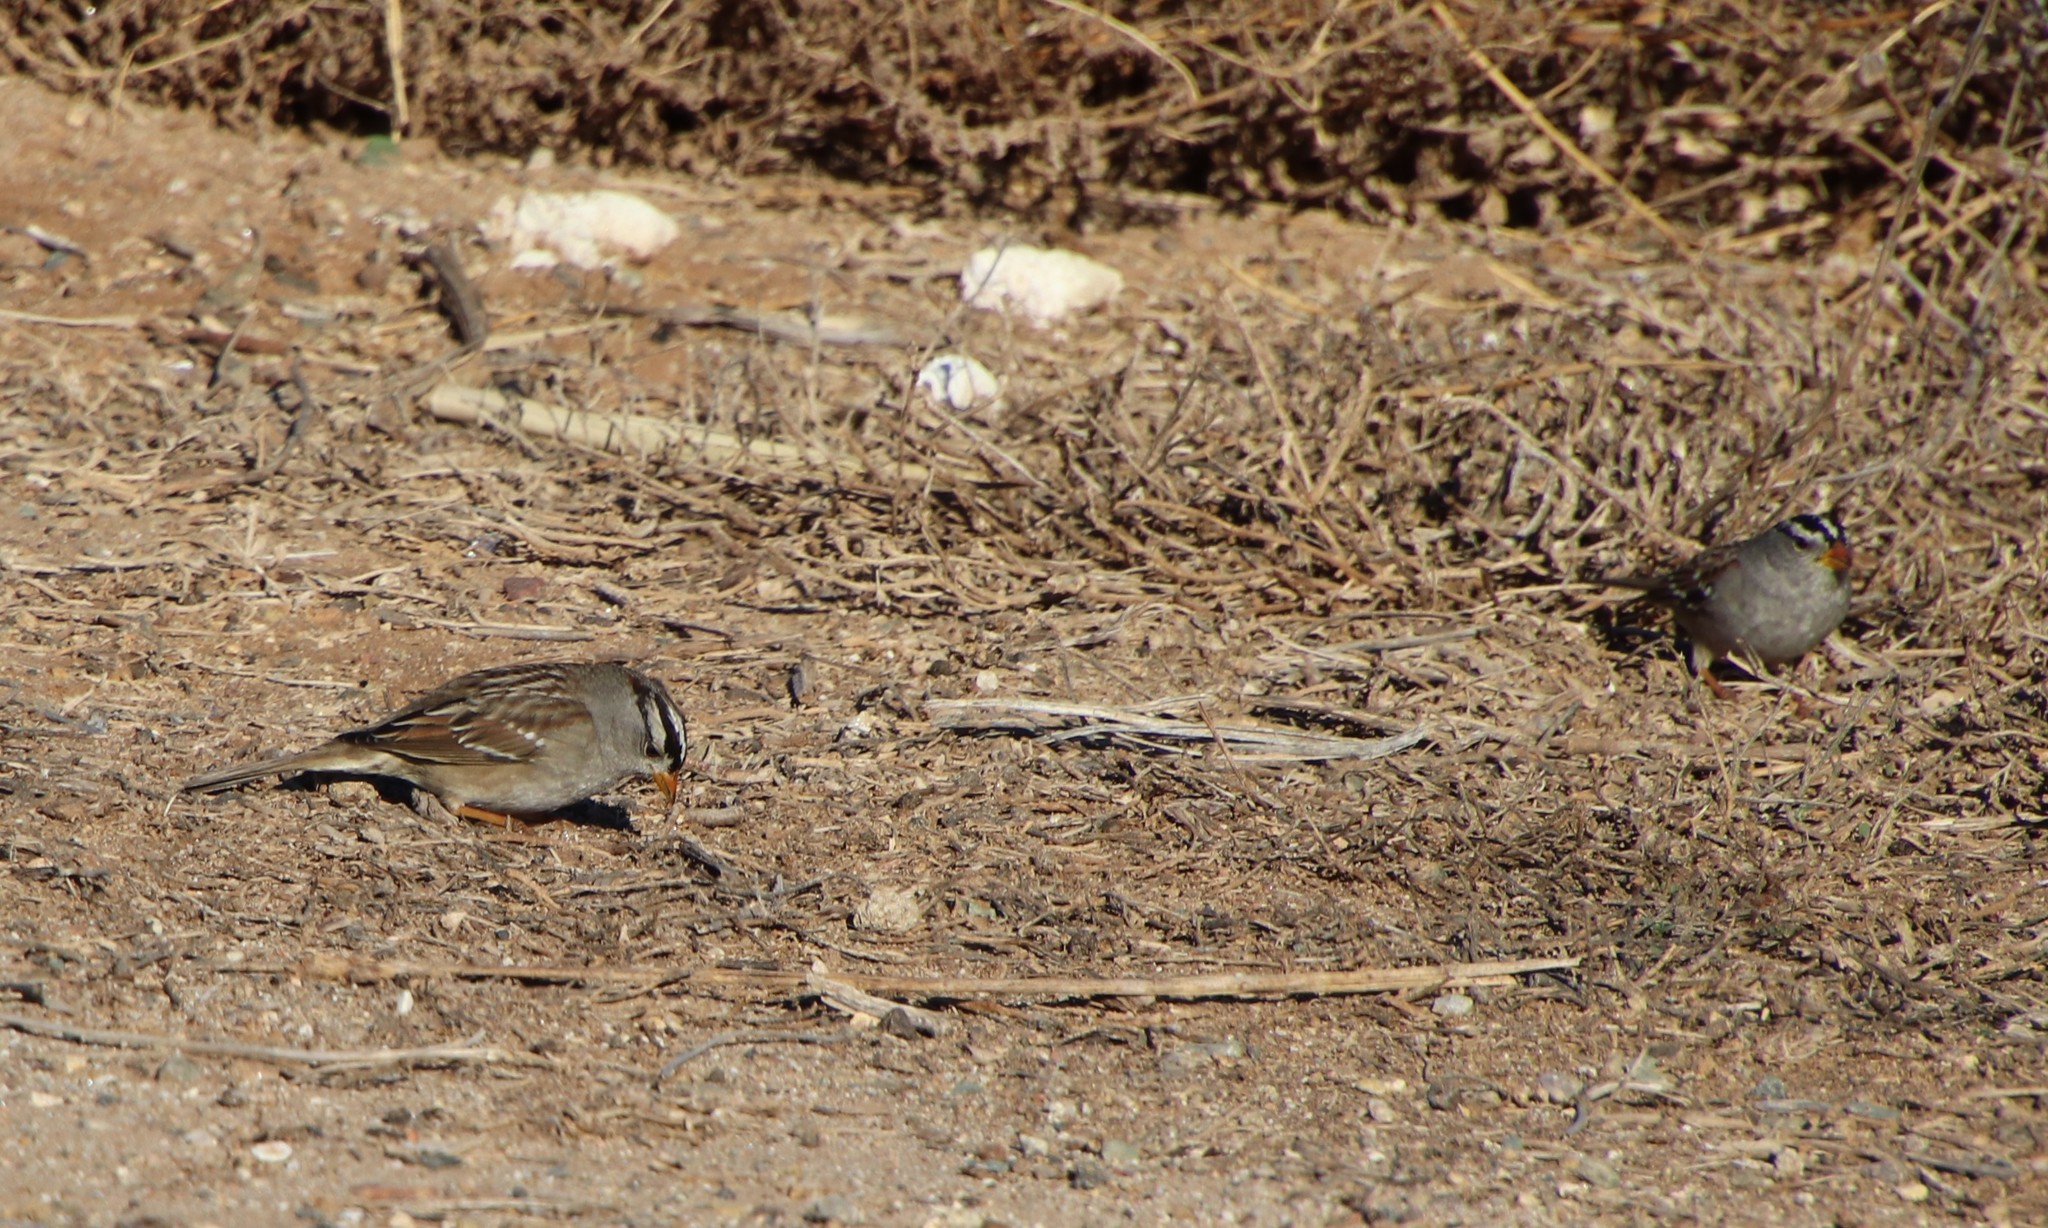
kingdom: Animalia
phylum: Chordata
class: Aves
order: Passeriformes
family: Passerellidae
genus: Zonotrichia
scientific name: Zonotrichia leucophrys
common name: White-crowned sparrow
